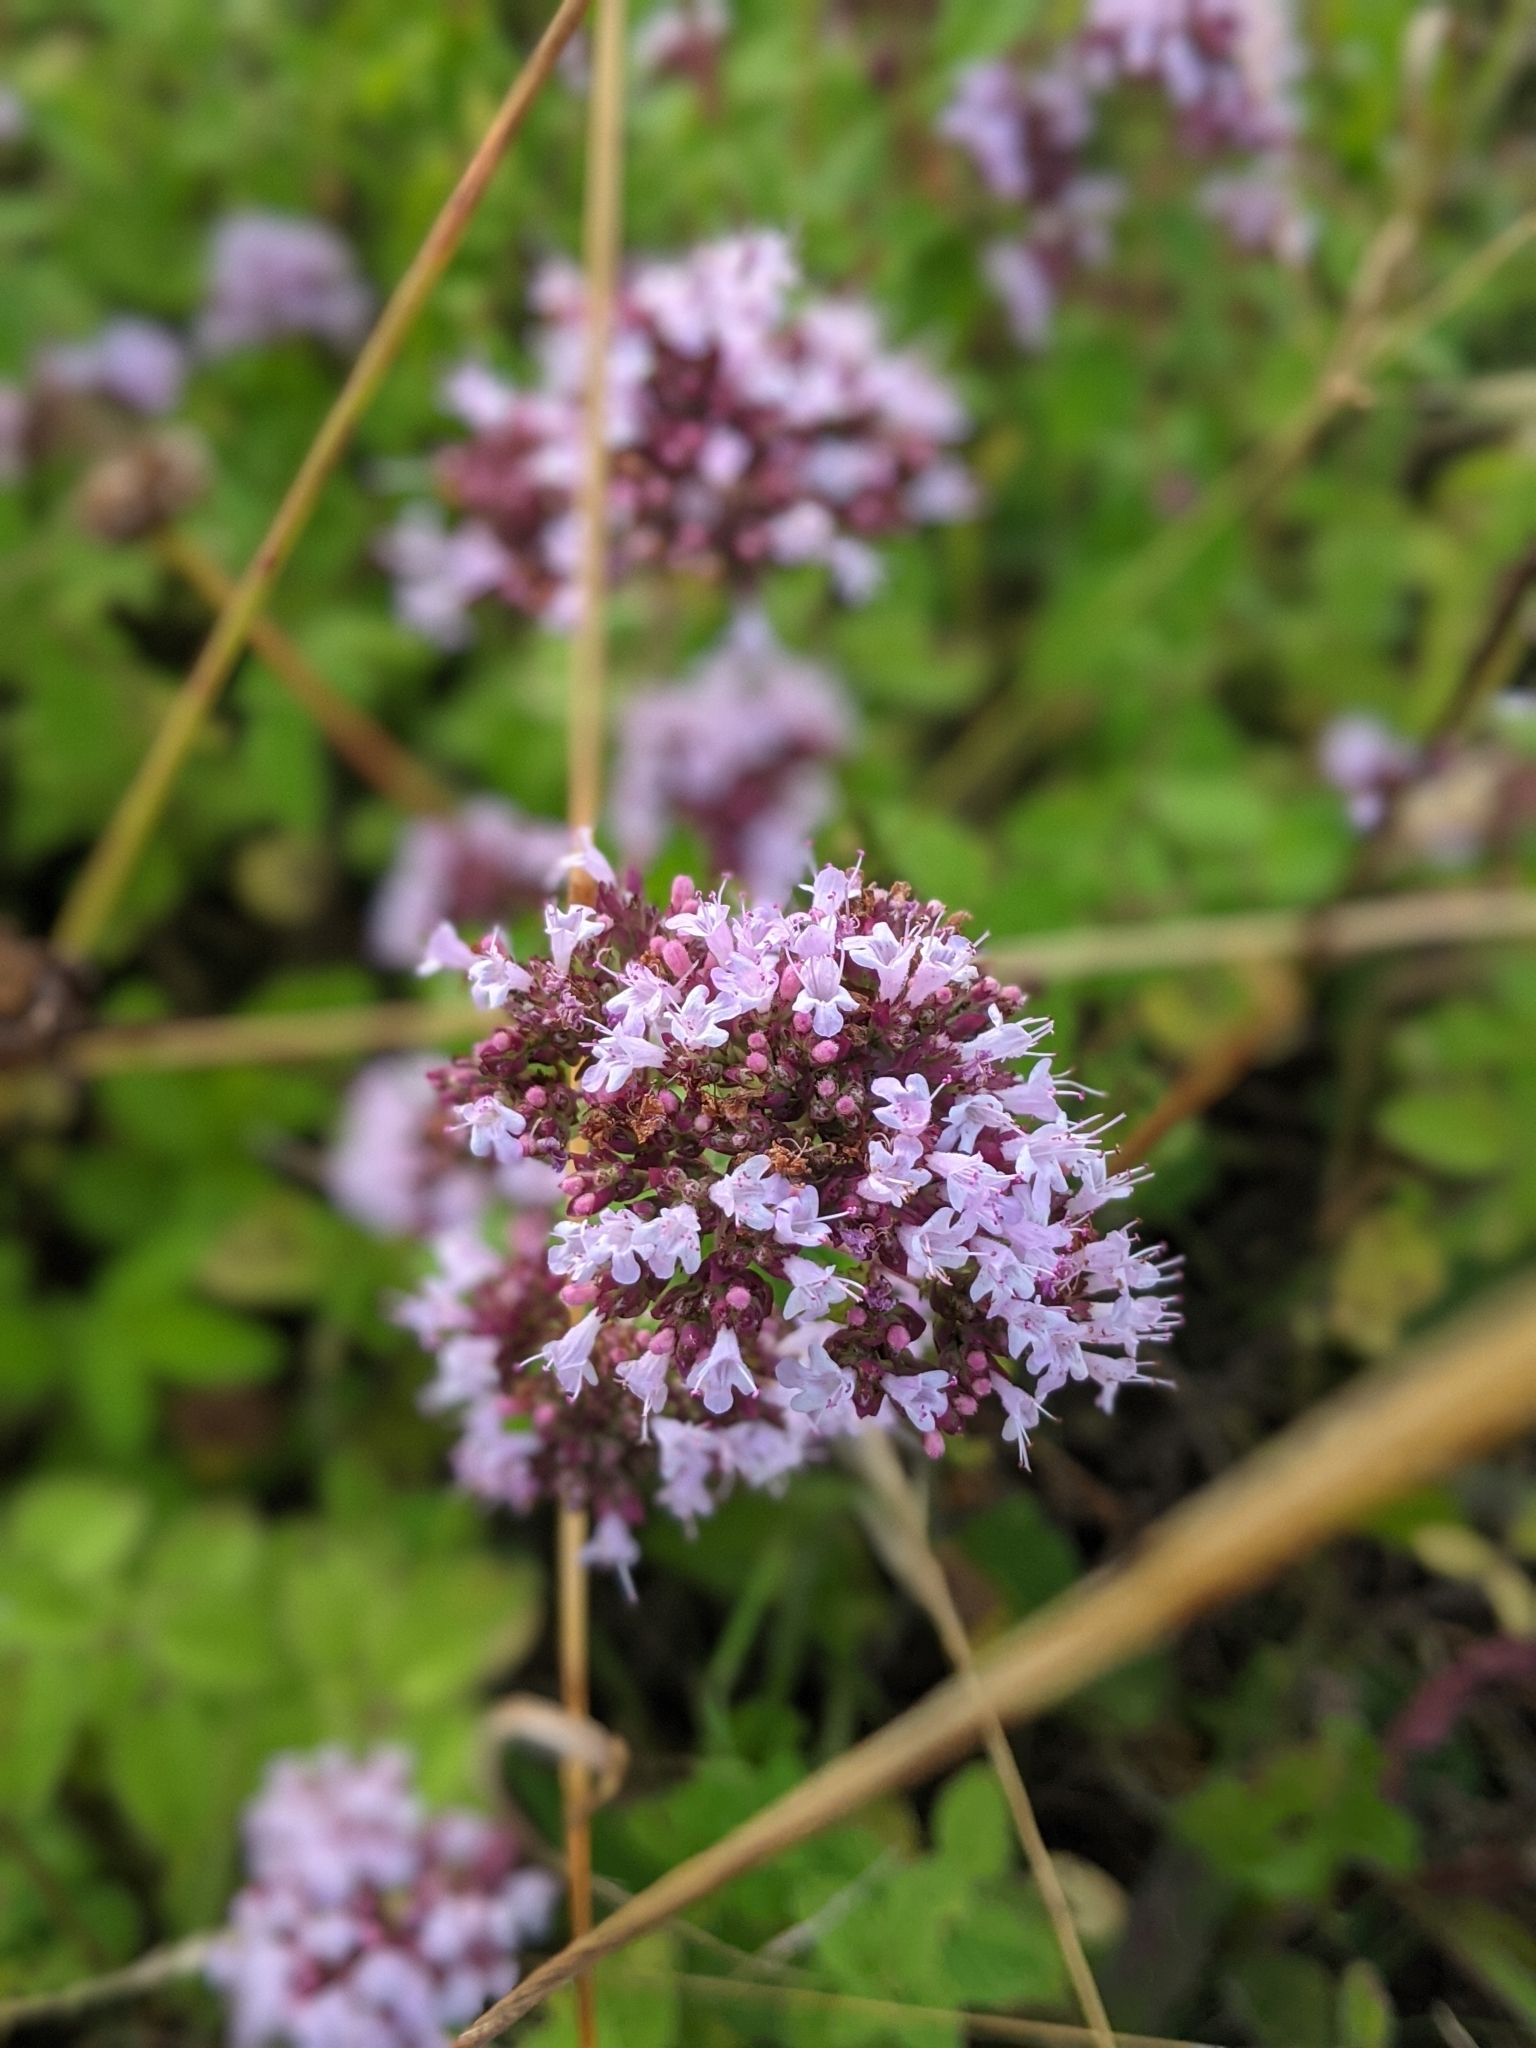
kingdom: Plantae
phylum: Tracheophyta
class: Magnoliopsida
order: Lamiales
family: Lamiaceae
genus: Origanum
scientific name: Origanum vulgare
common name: Wild marjoram
